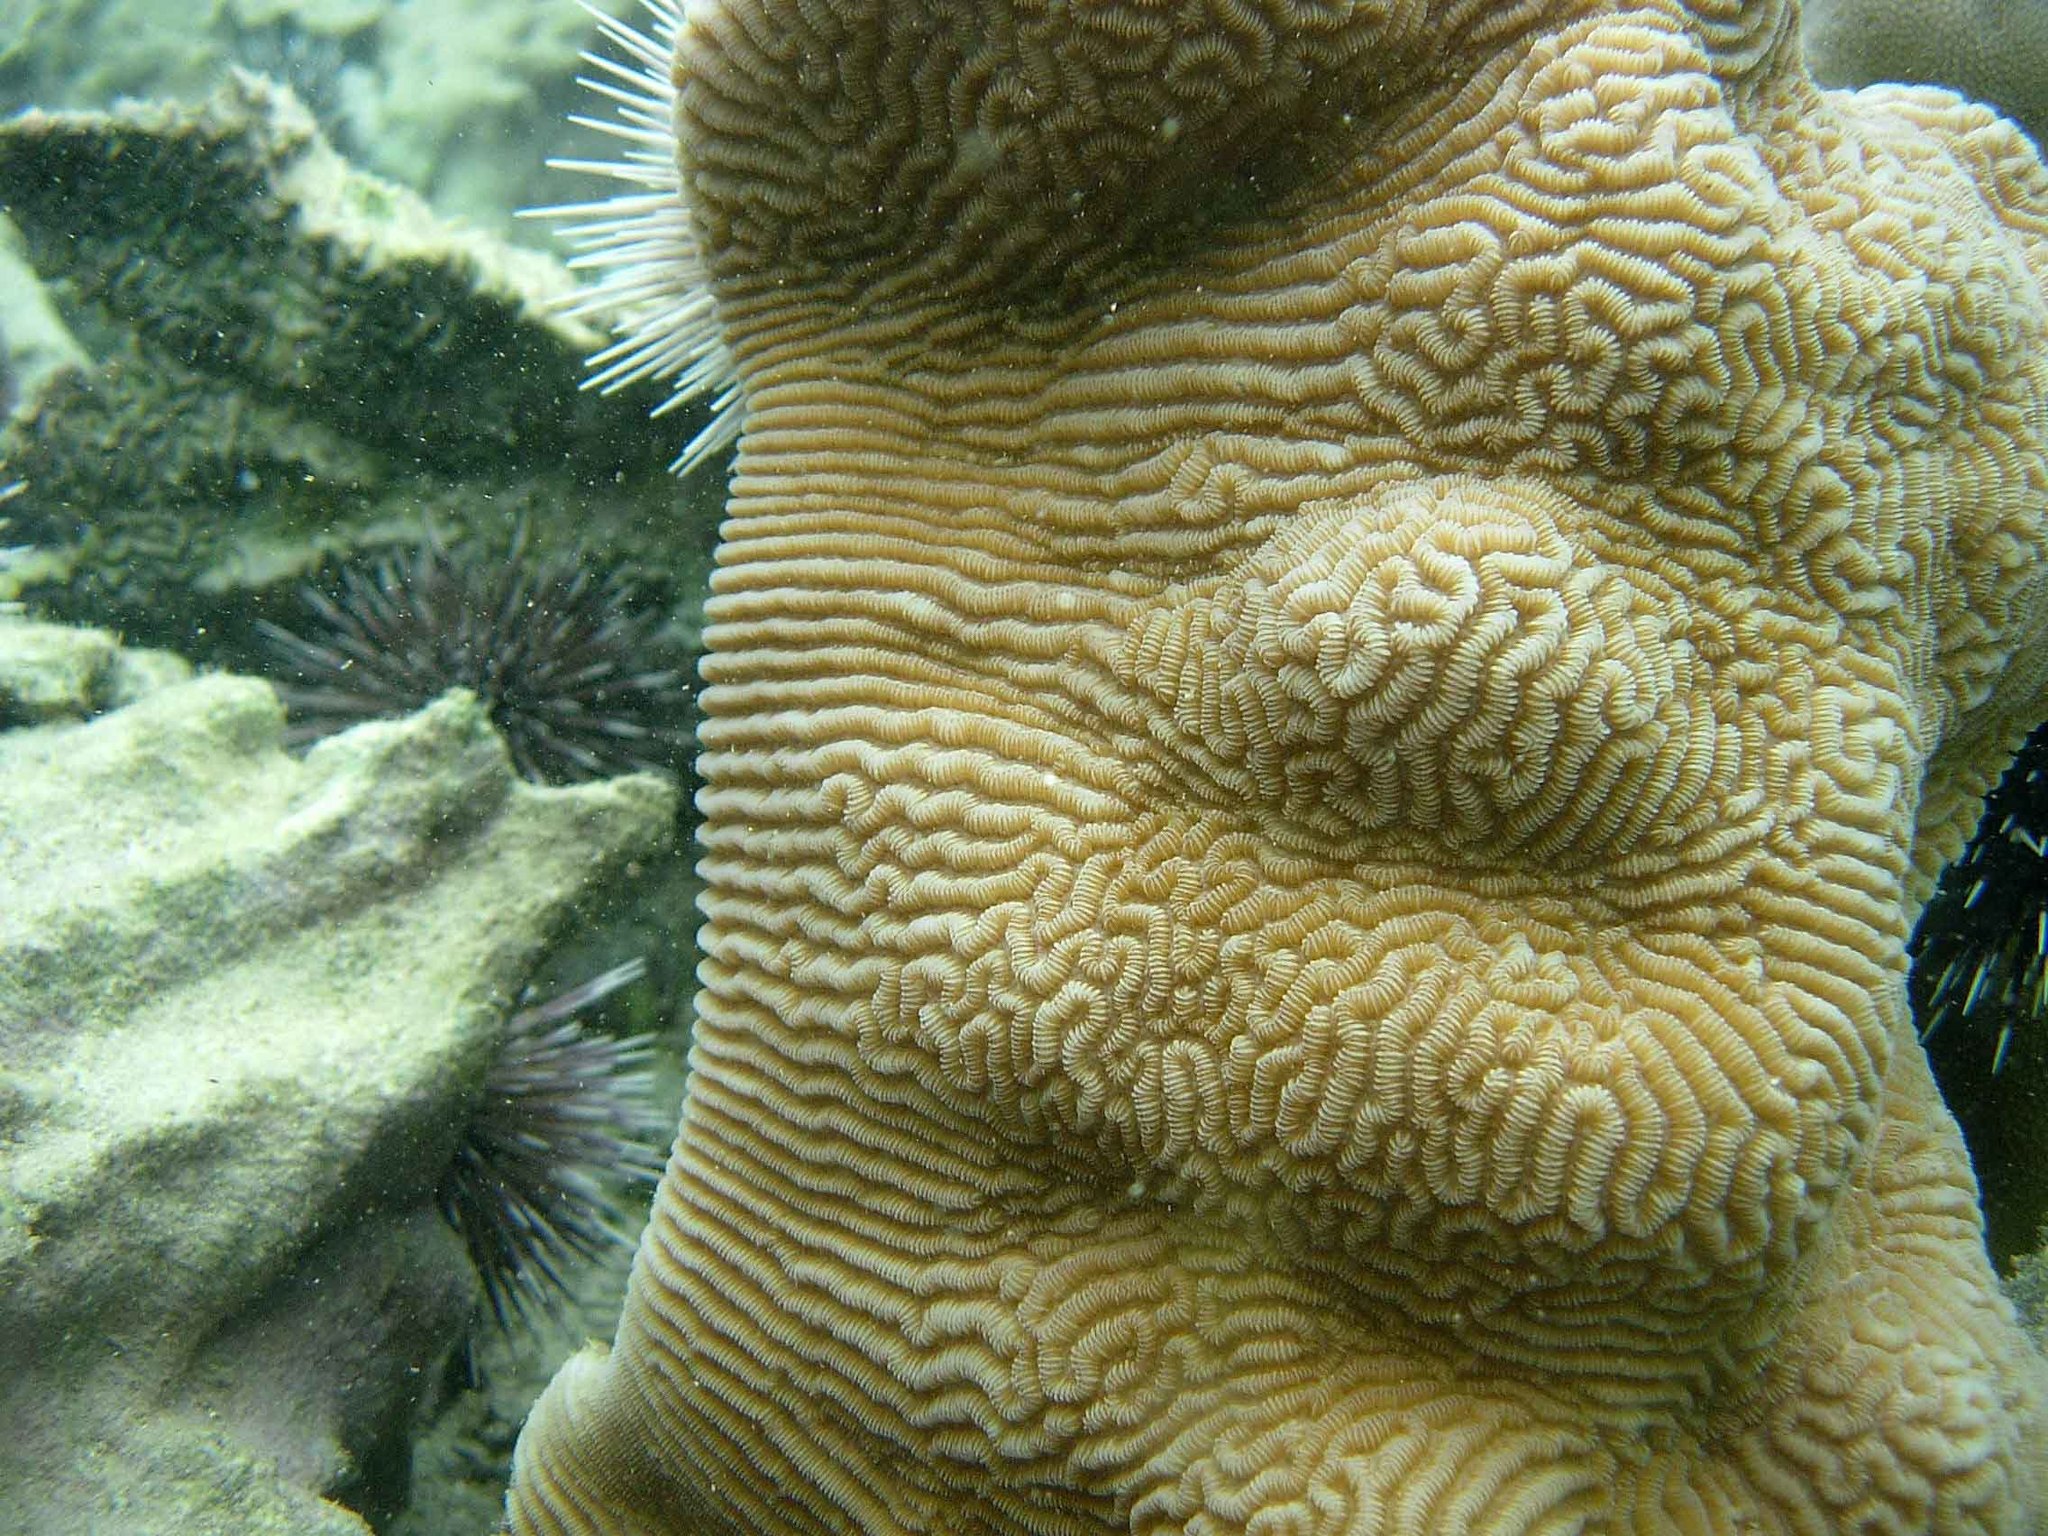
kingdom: Animalia
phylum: Cnidaria
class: Anthozoa
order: Scleractinia
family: Merulinidae
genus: Leptoria
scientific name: Leptoria phrygia
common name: Least valley coral
